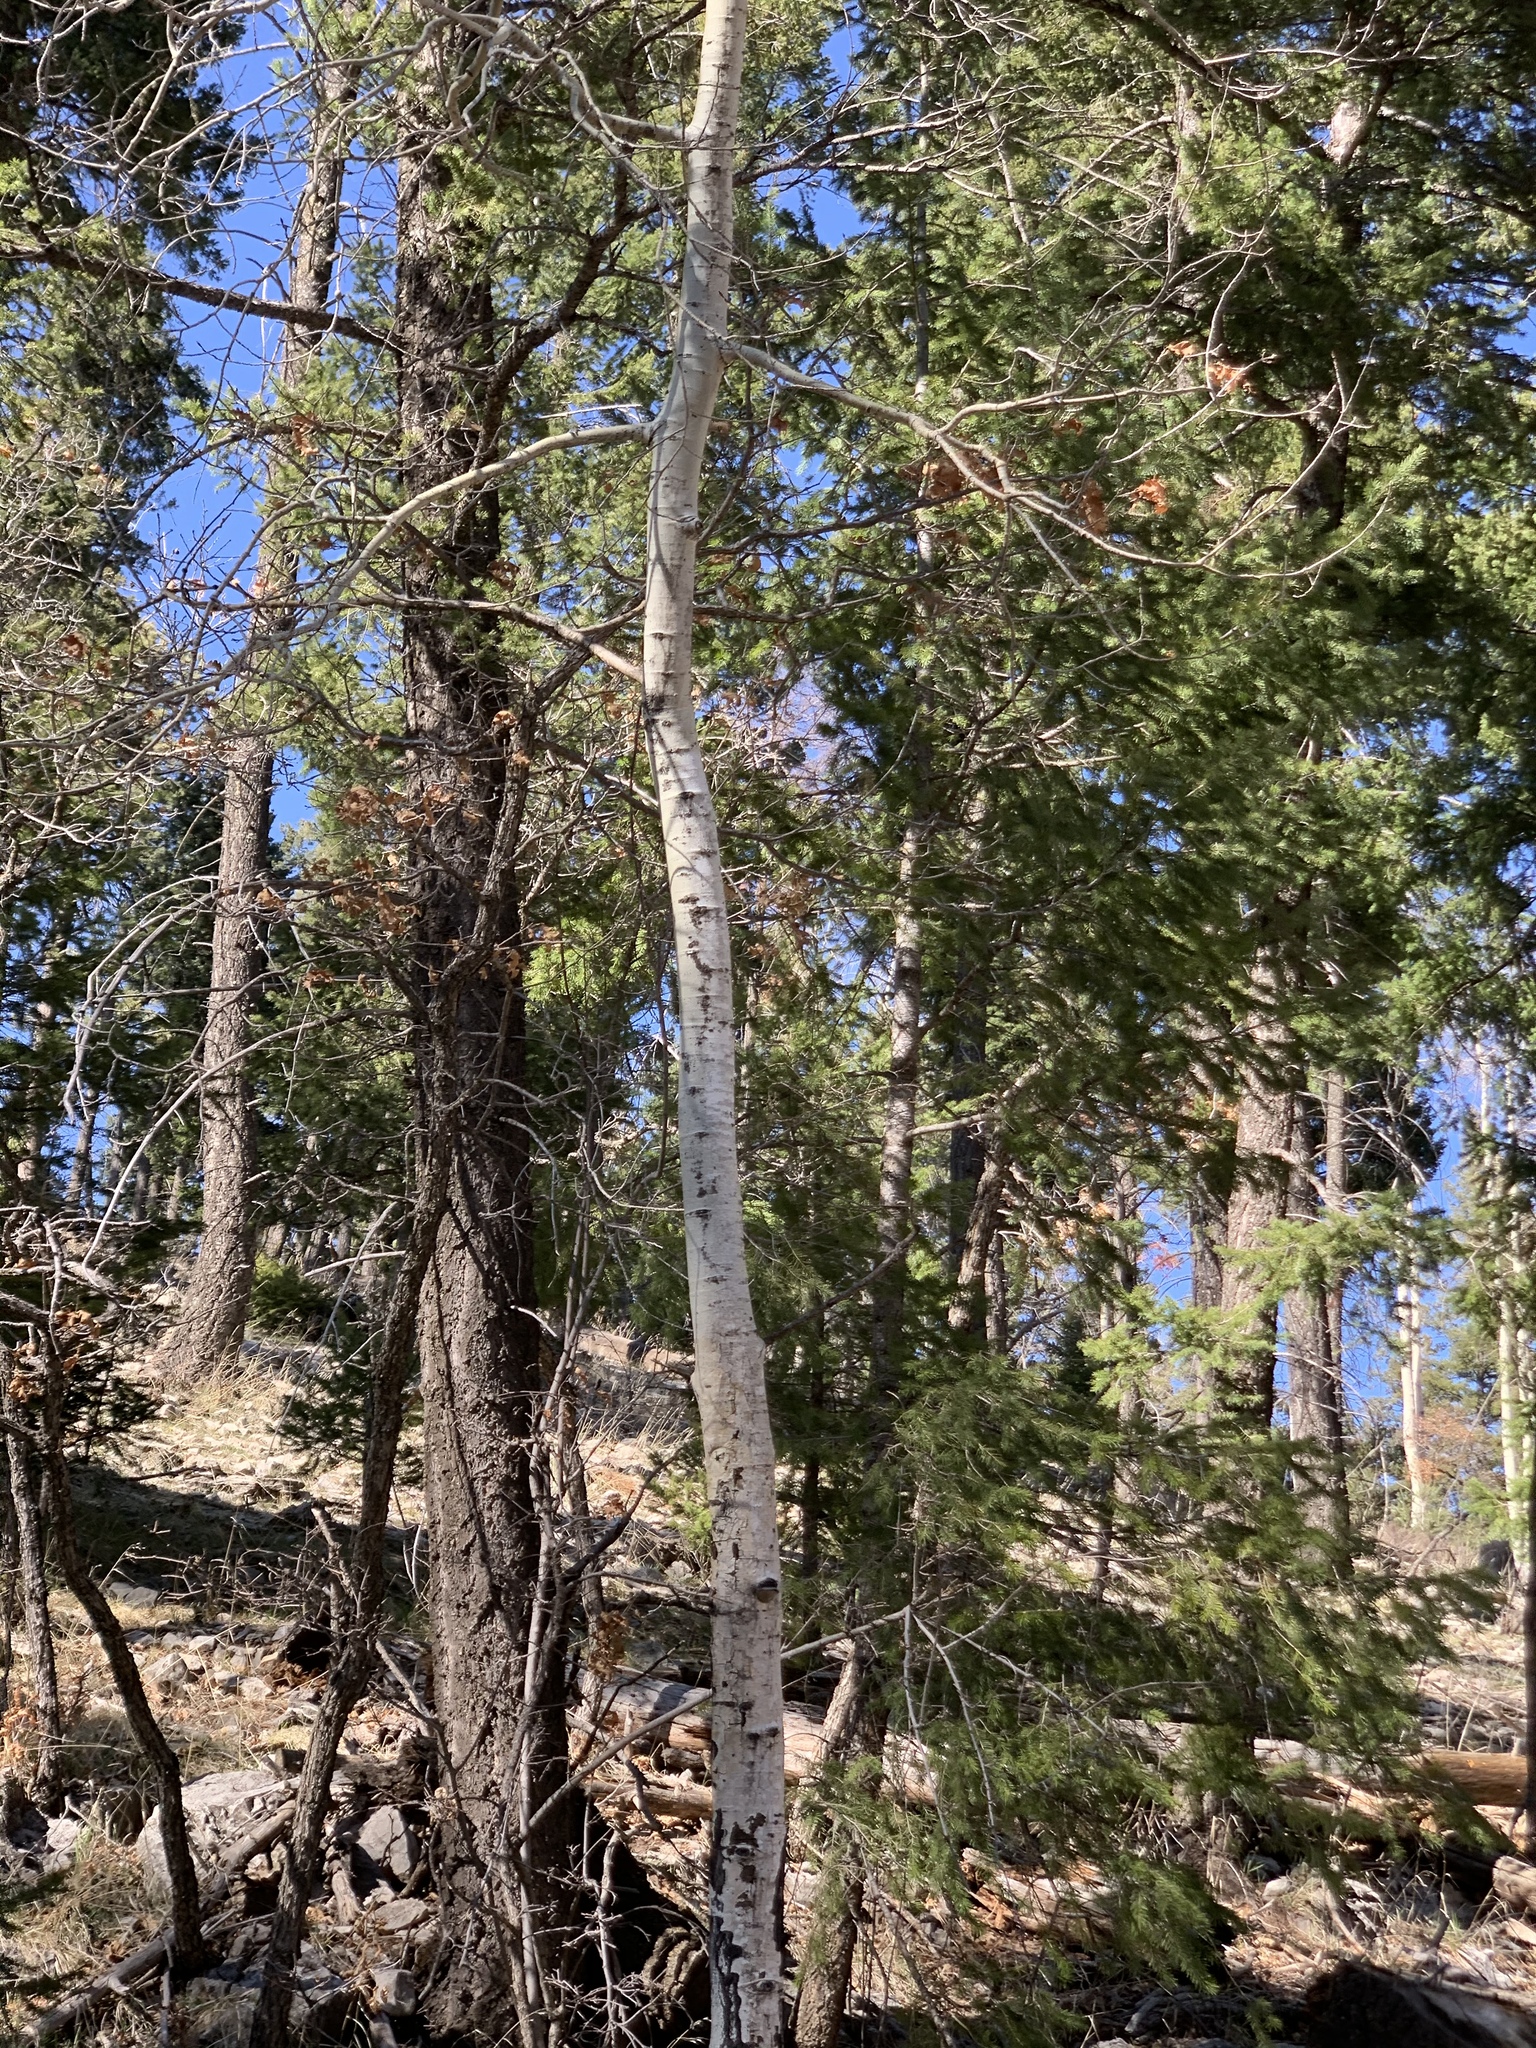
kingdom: Plantae
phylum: Tracheophyta
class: Magnoliopsida
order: Malpighiales
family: Salicaceae
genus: Populus
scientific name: Populus tremuloides
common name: Quaking aspen
